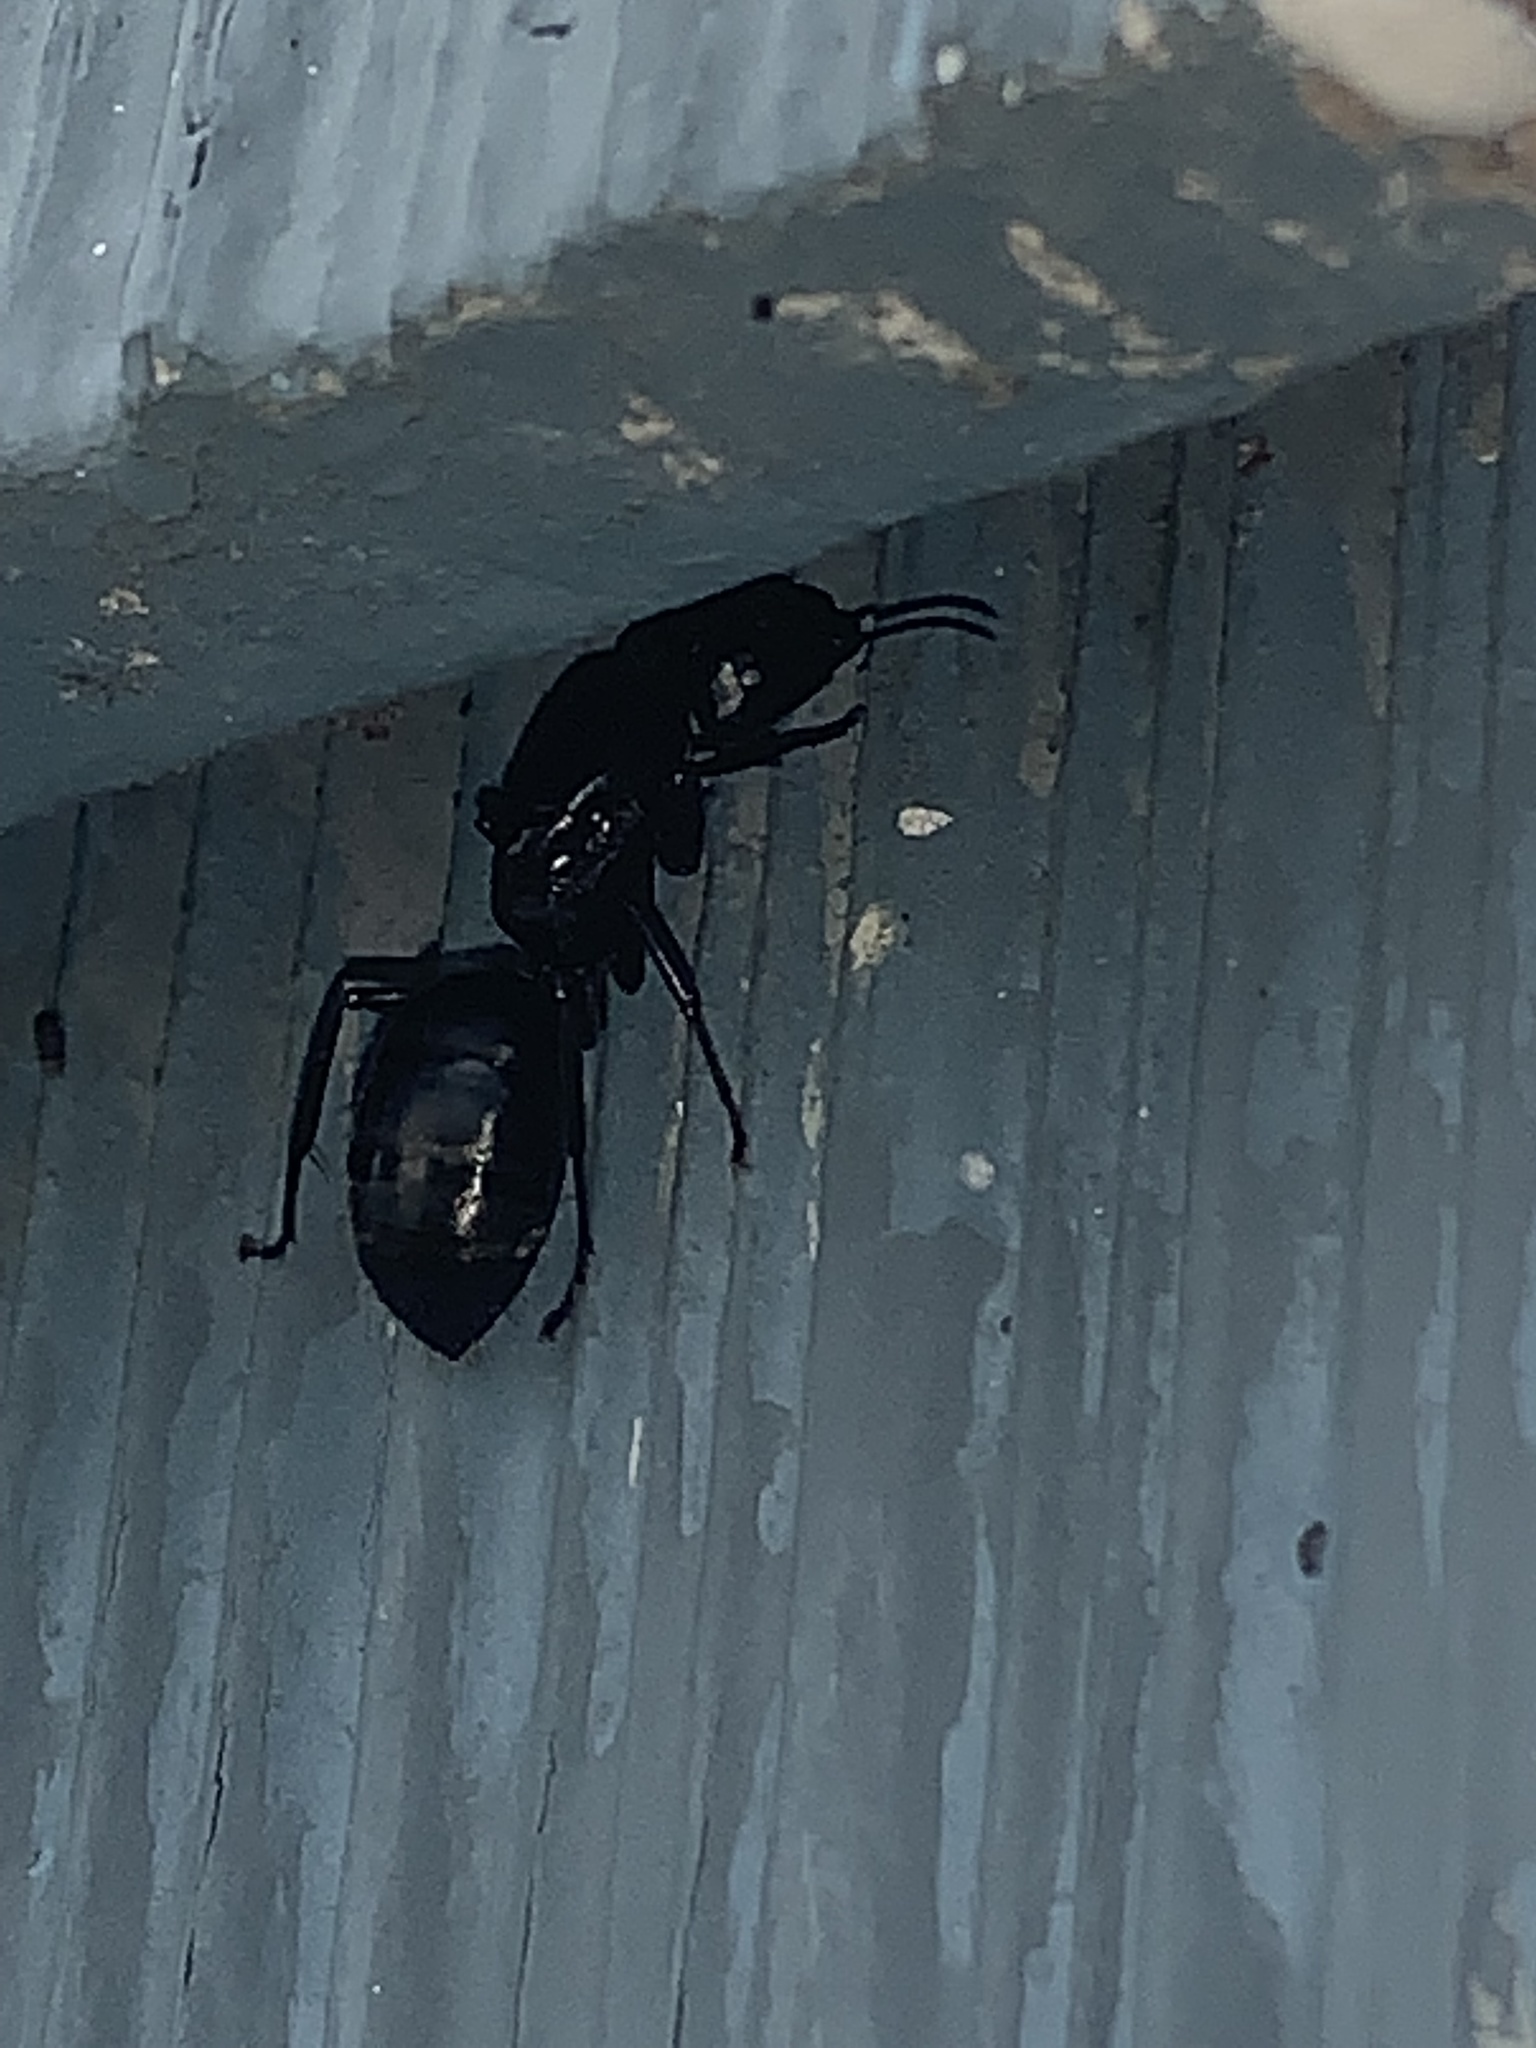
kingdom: Animalia
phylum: Arthropoda
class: Insecta
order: Hymenoptera
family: Formicidae
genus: Camponotus
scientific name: Camponotus pennsylvanicus
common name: Black carpenter ant
